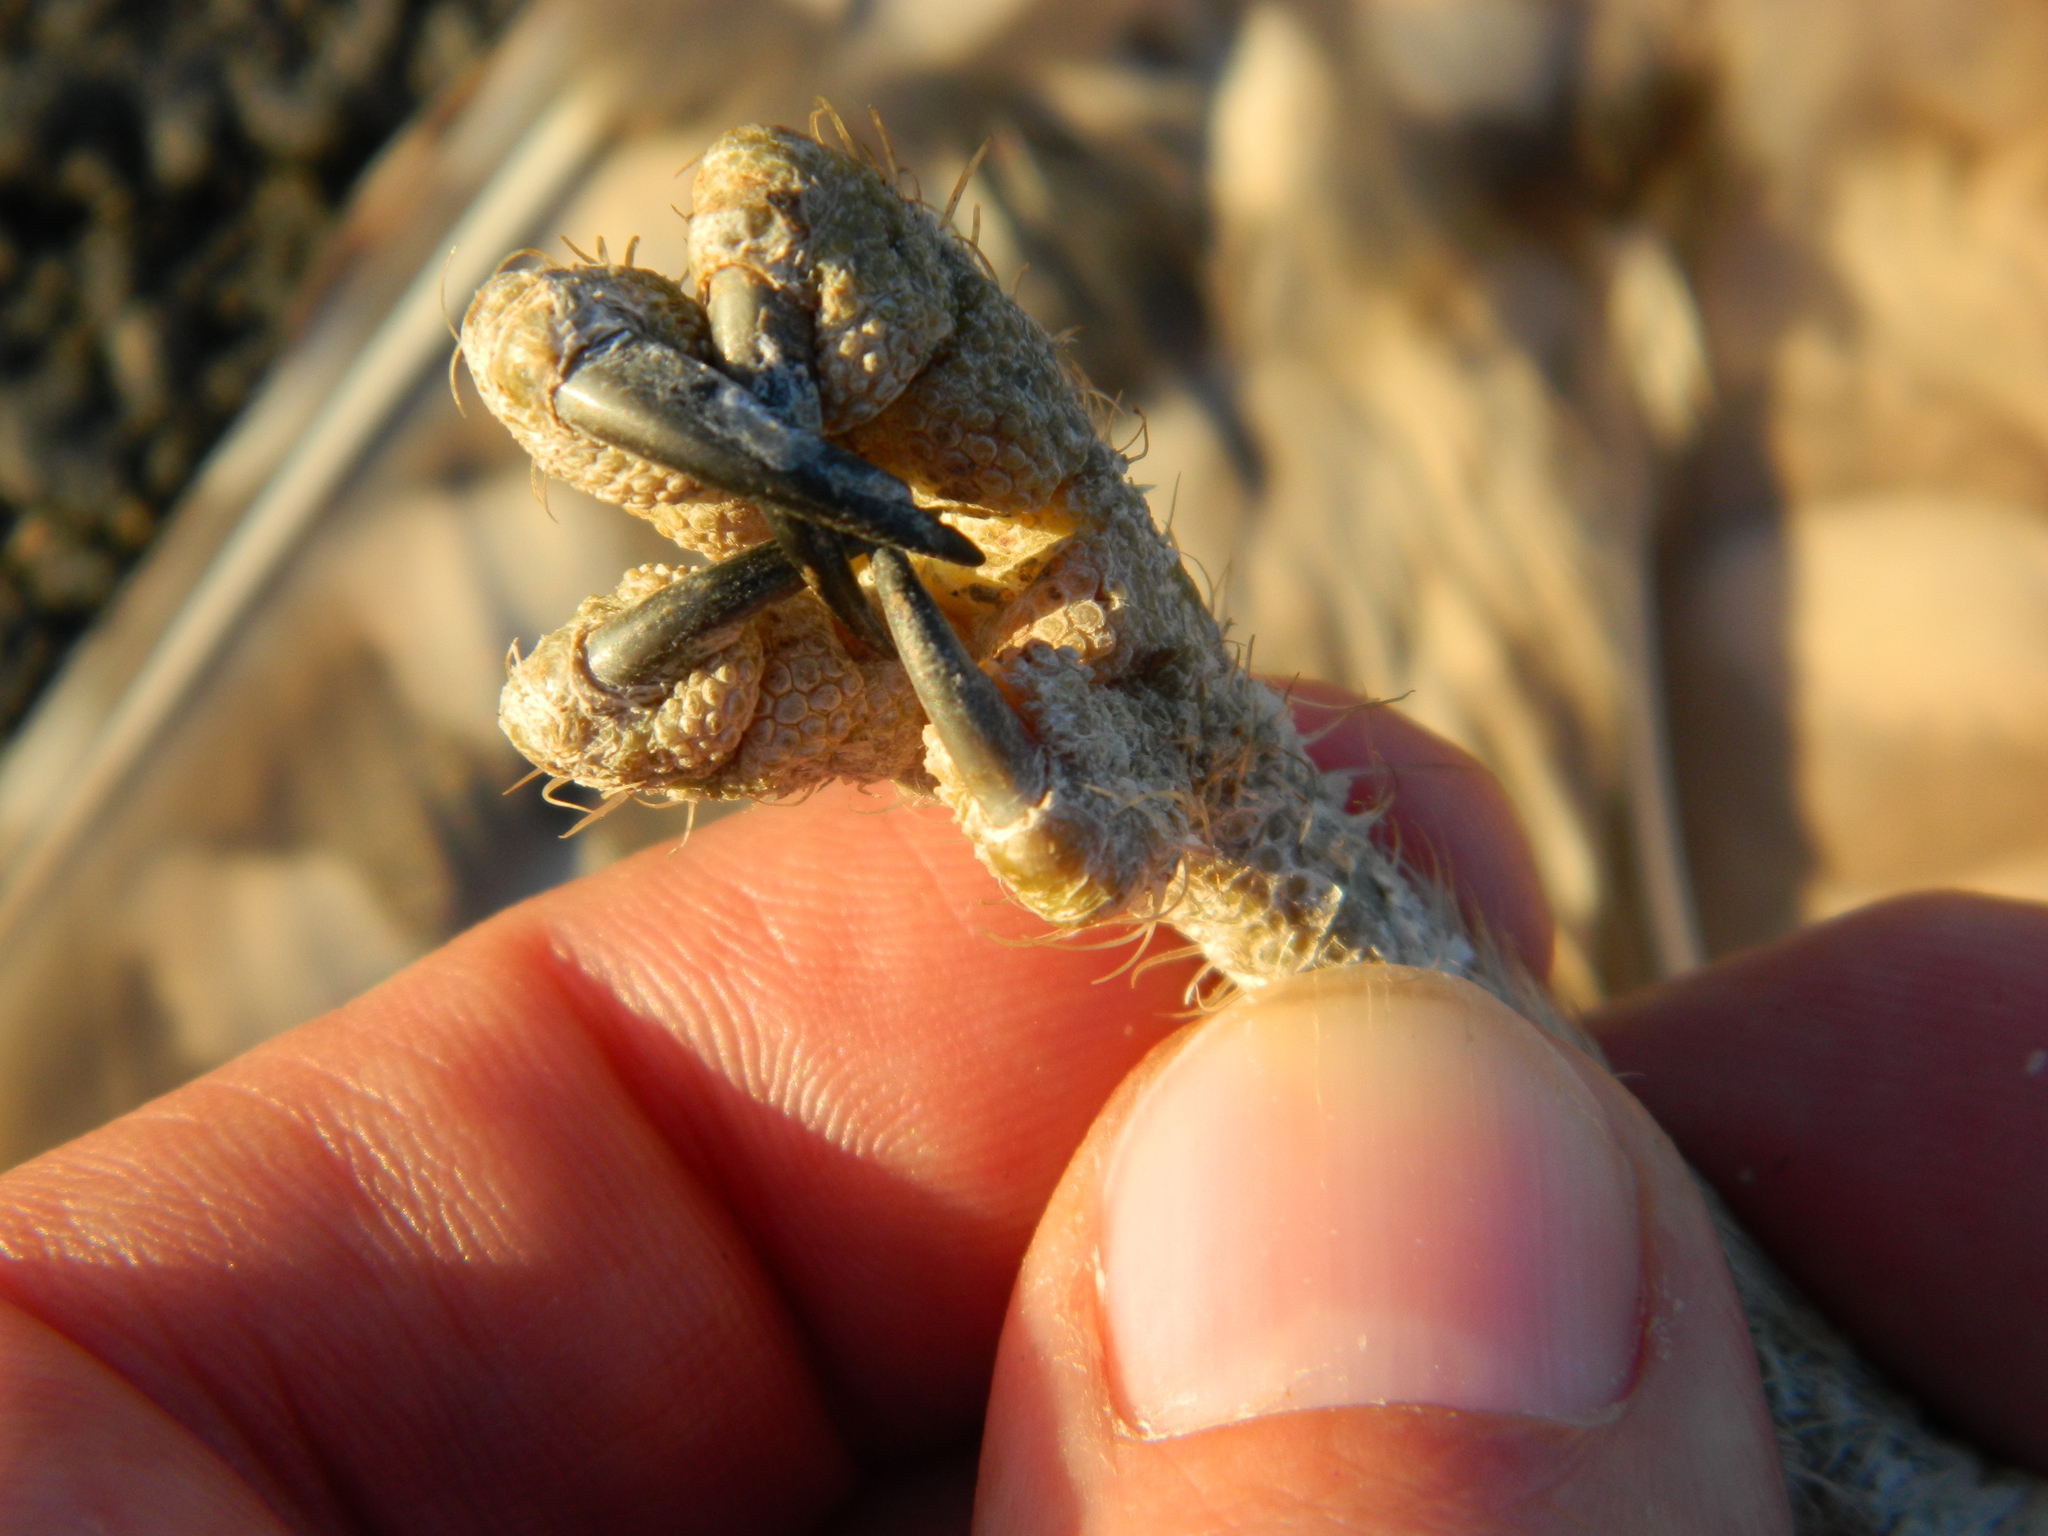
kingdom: Animalia
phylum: Chordata
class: Aves
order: Strigiformes
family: Strigidae
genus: Athene
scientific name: Athene cunicularia
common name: Burrowing owl
